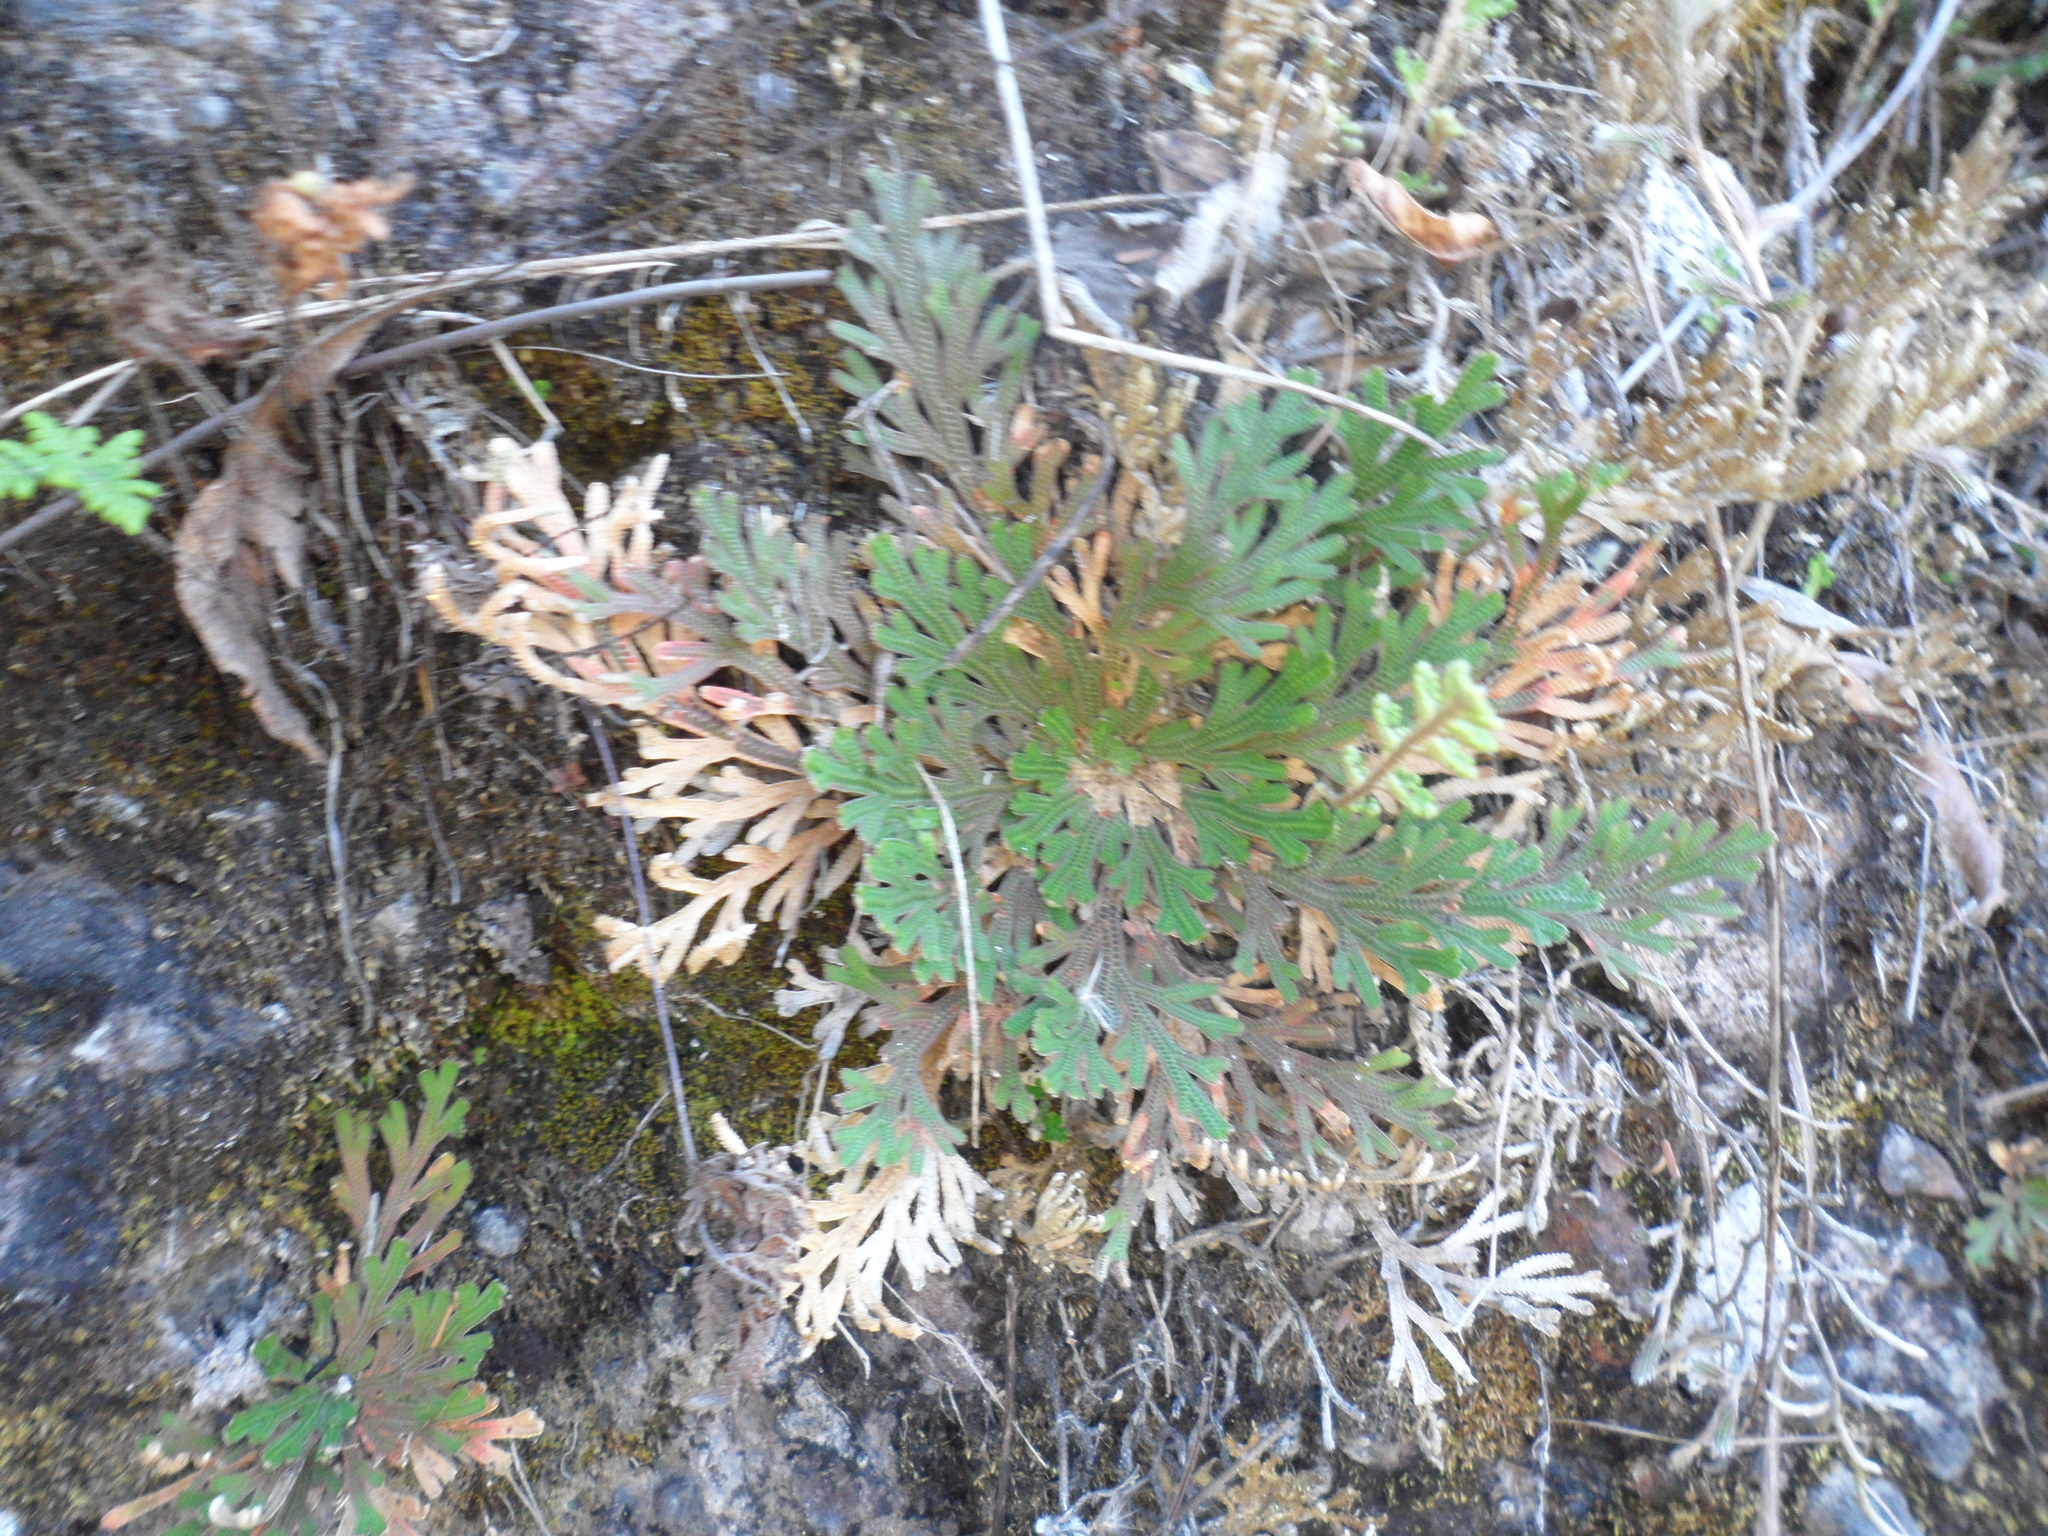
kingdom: Plantae
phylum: Tracheophyta
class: Lycopodiopsida
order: Selaginellales
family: Selaginellaceae
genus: Selaginella
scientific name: Selaginella lepidophylla
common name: Rose-of-jericho
